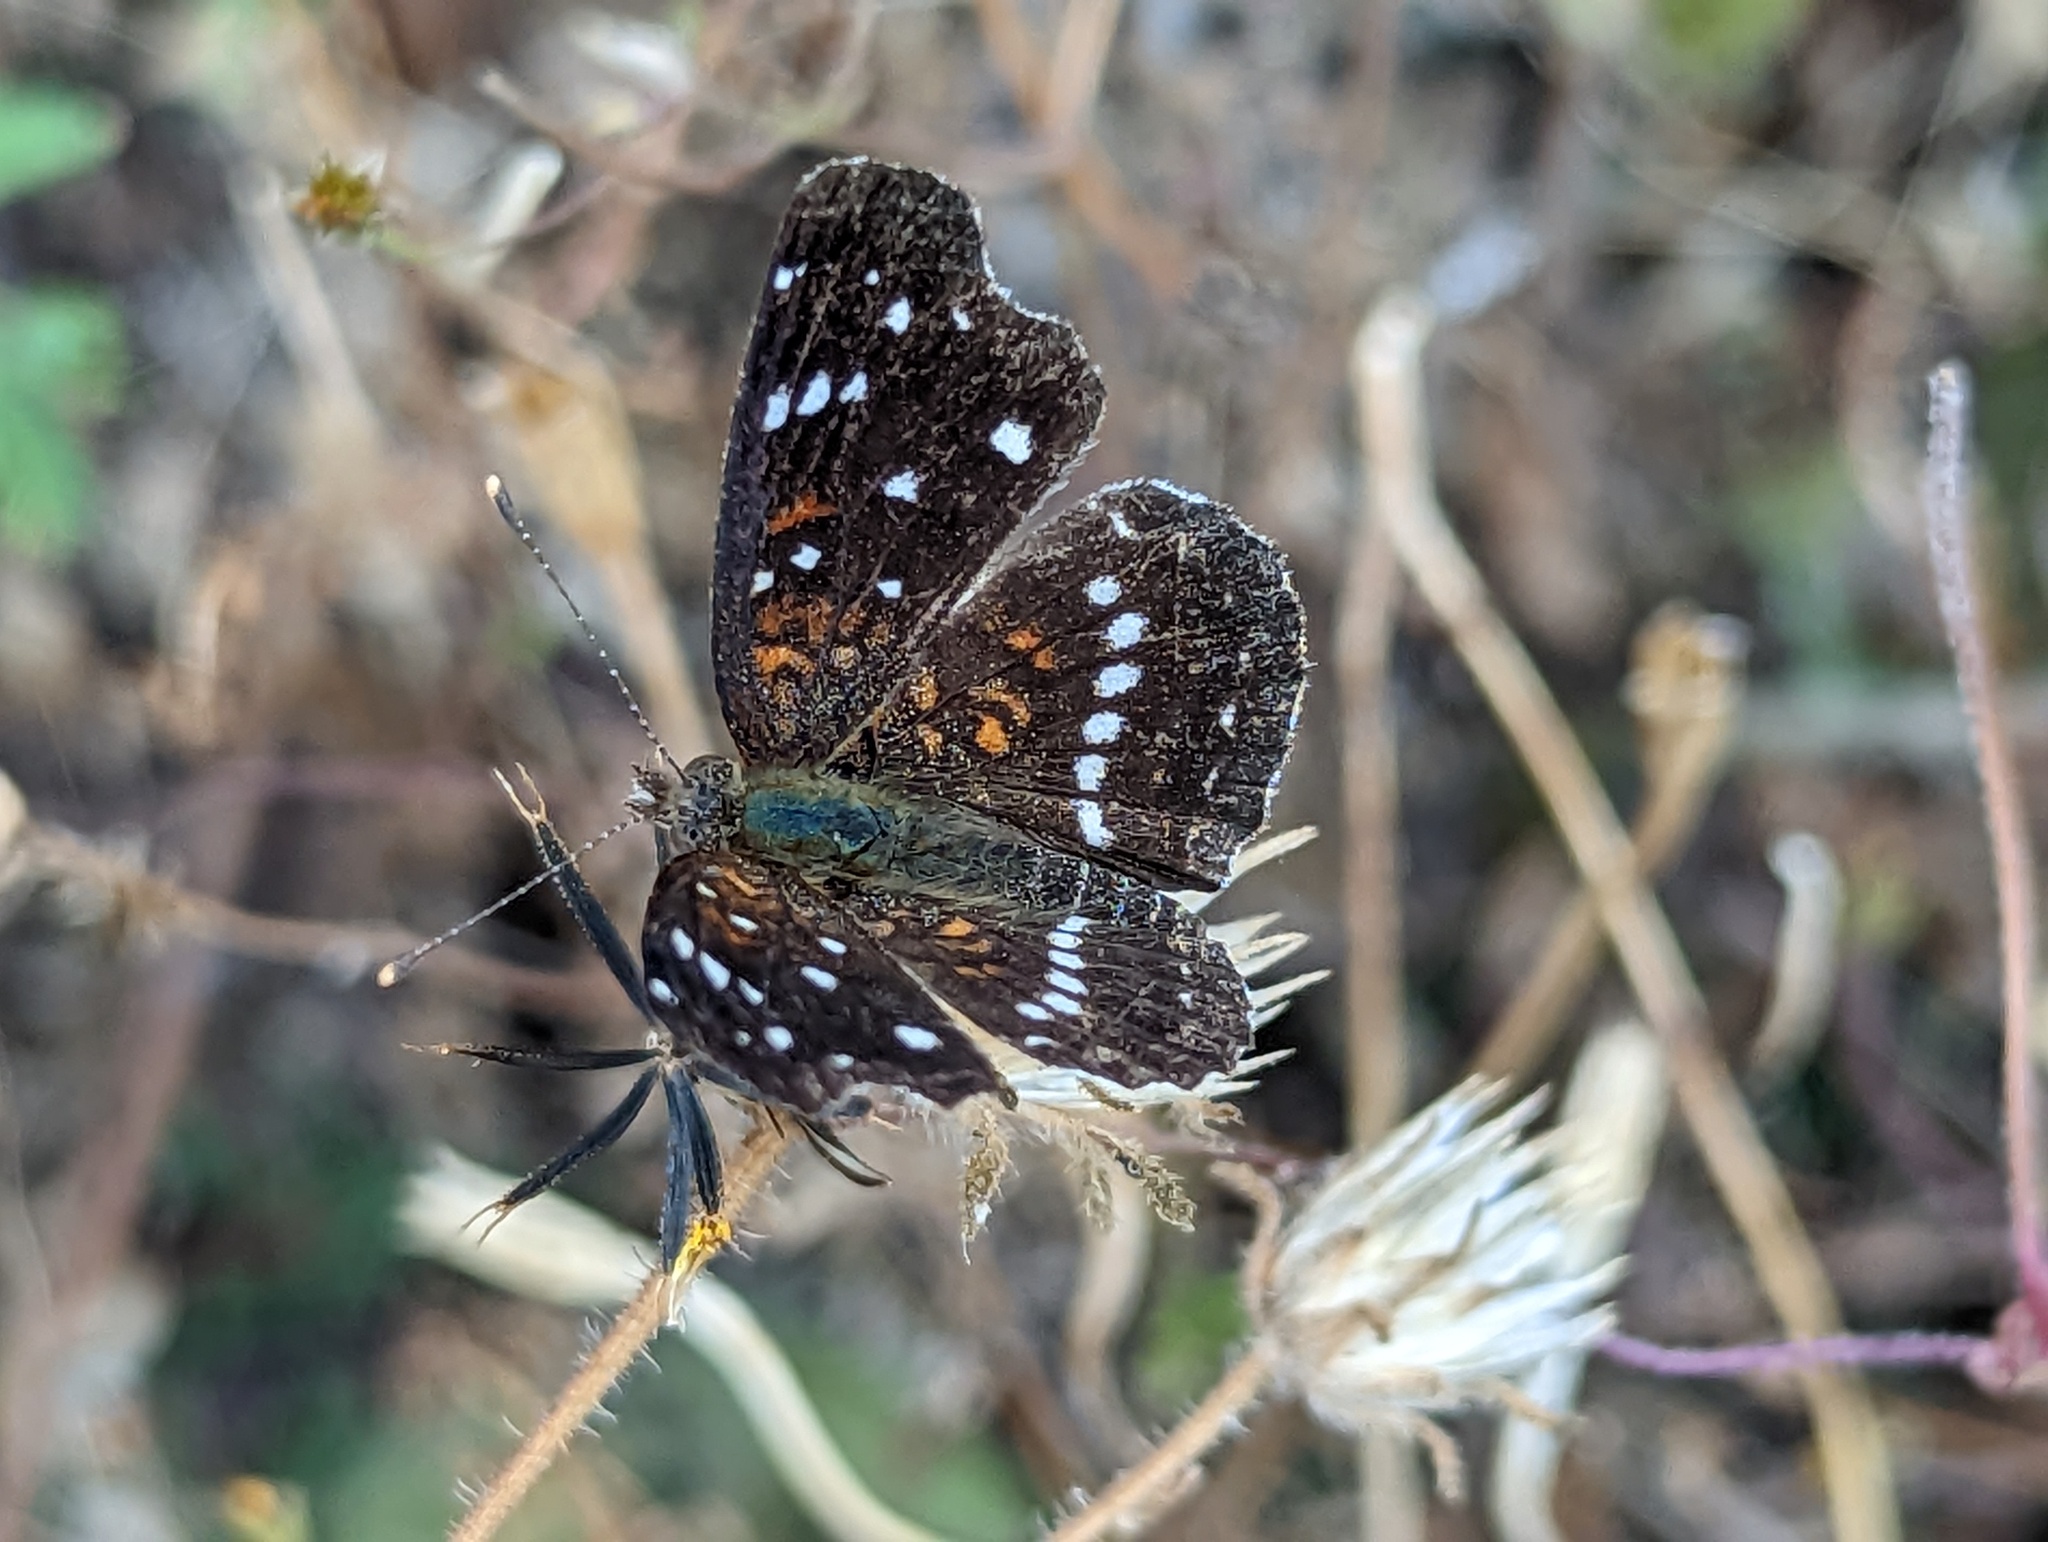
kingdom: Animalia
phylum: Arthropoda
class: Insecta
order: Lepidoptera
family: Nymphalidae
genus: Anthanassa
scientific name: Anthanassa texana
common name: Texan crescent
